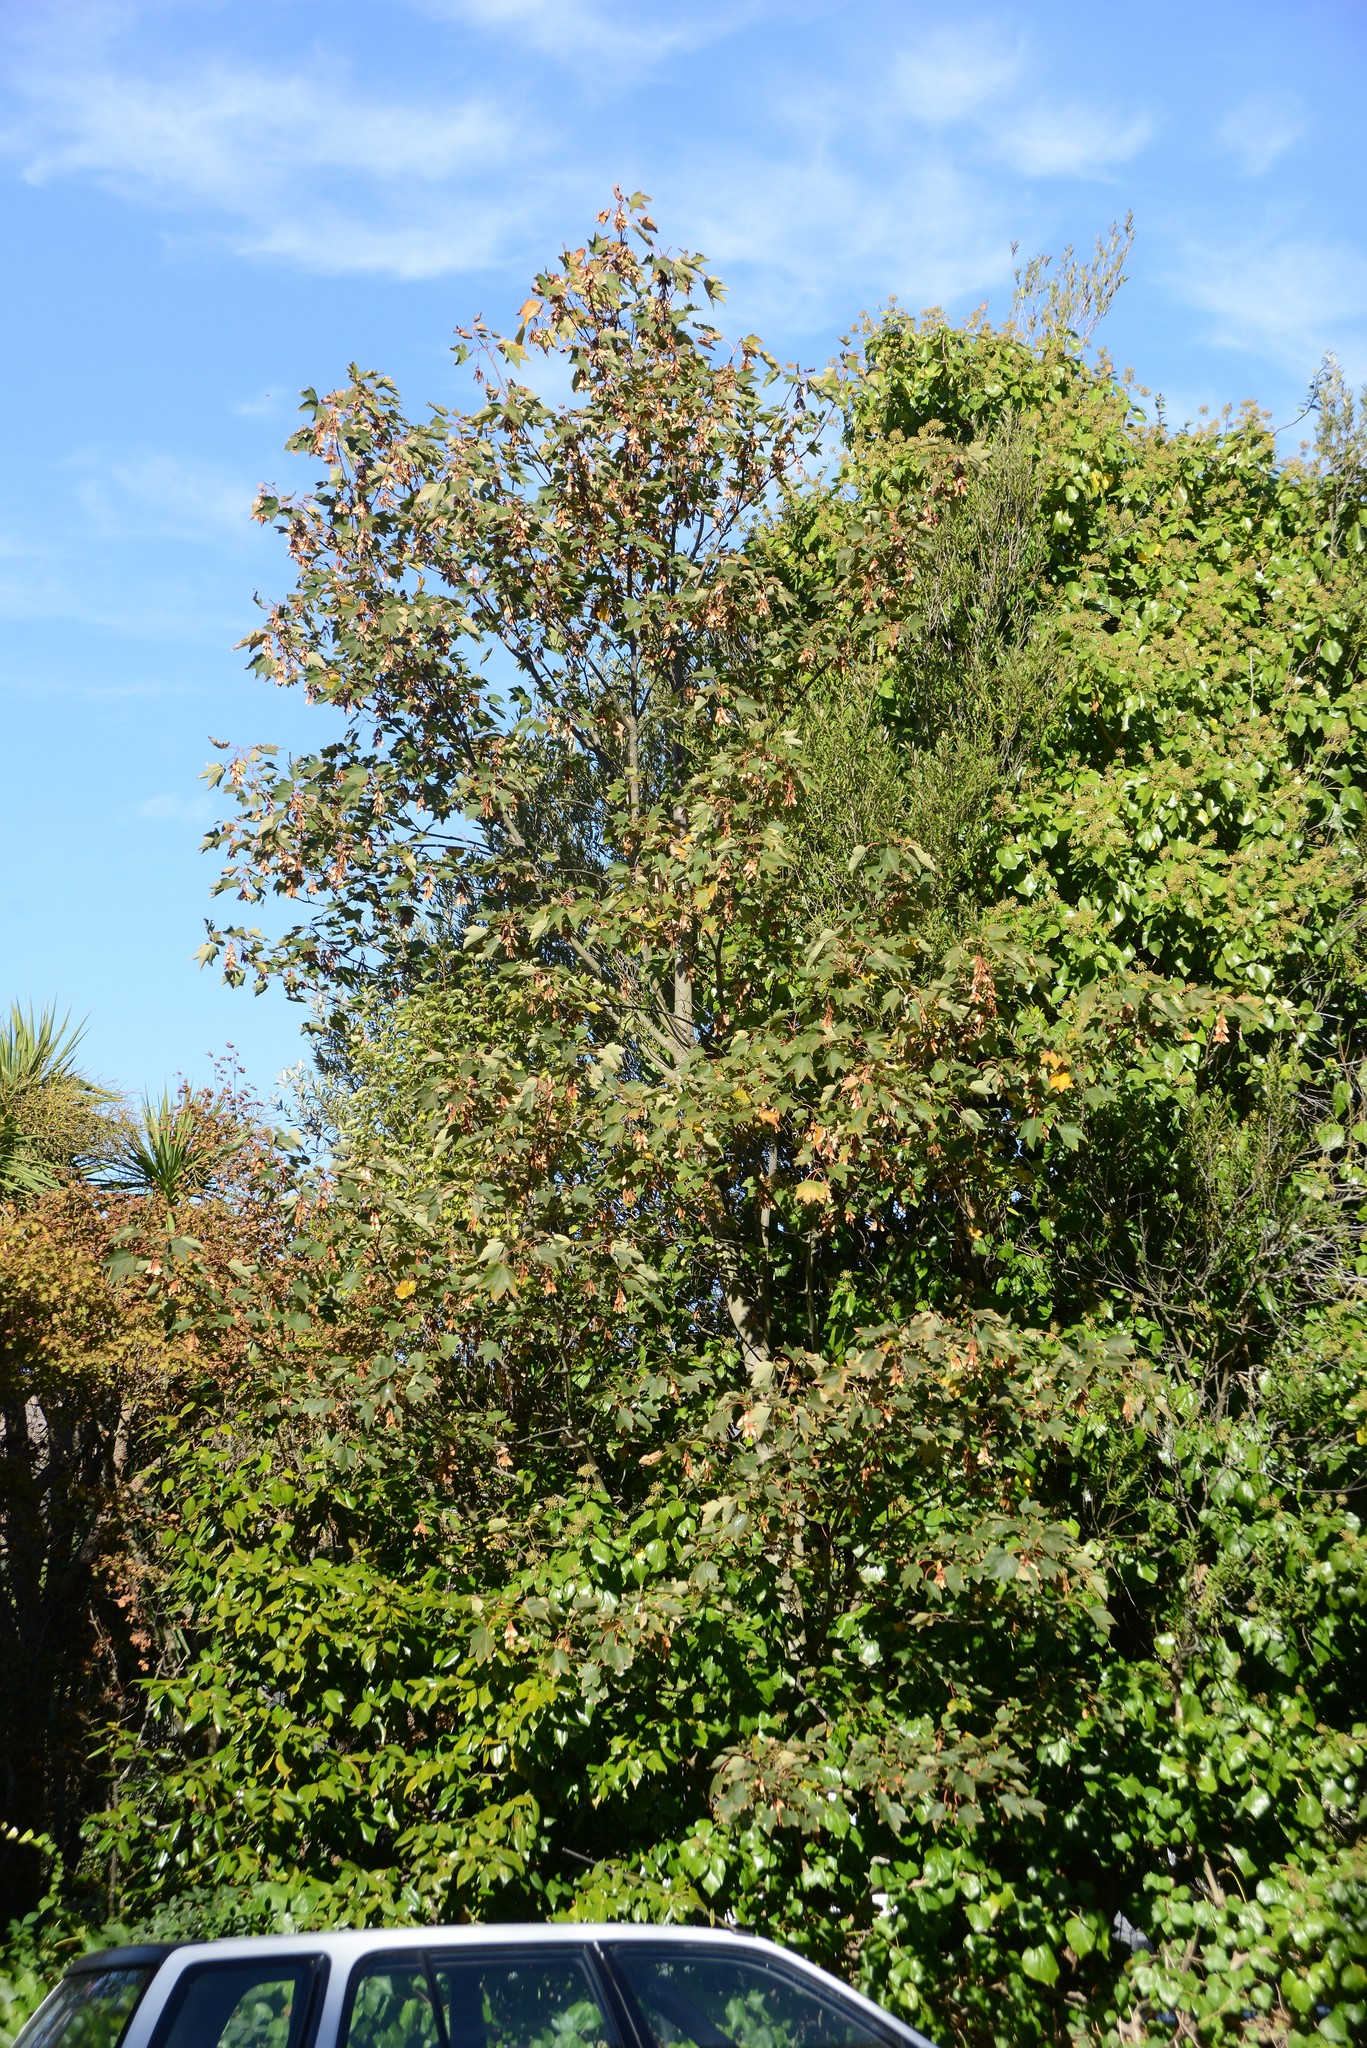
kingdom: Plantae
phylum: Tracheophyta
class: Magnoliopsida
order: Sapindales
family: Sapindaceae
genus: Acer
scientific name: Acer pseudoplatanus
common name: Sycamore
